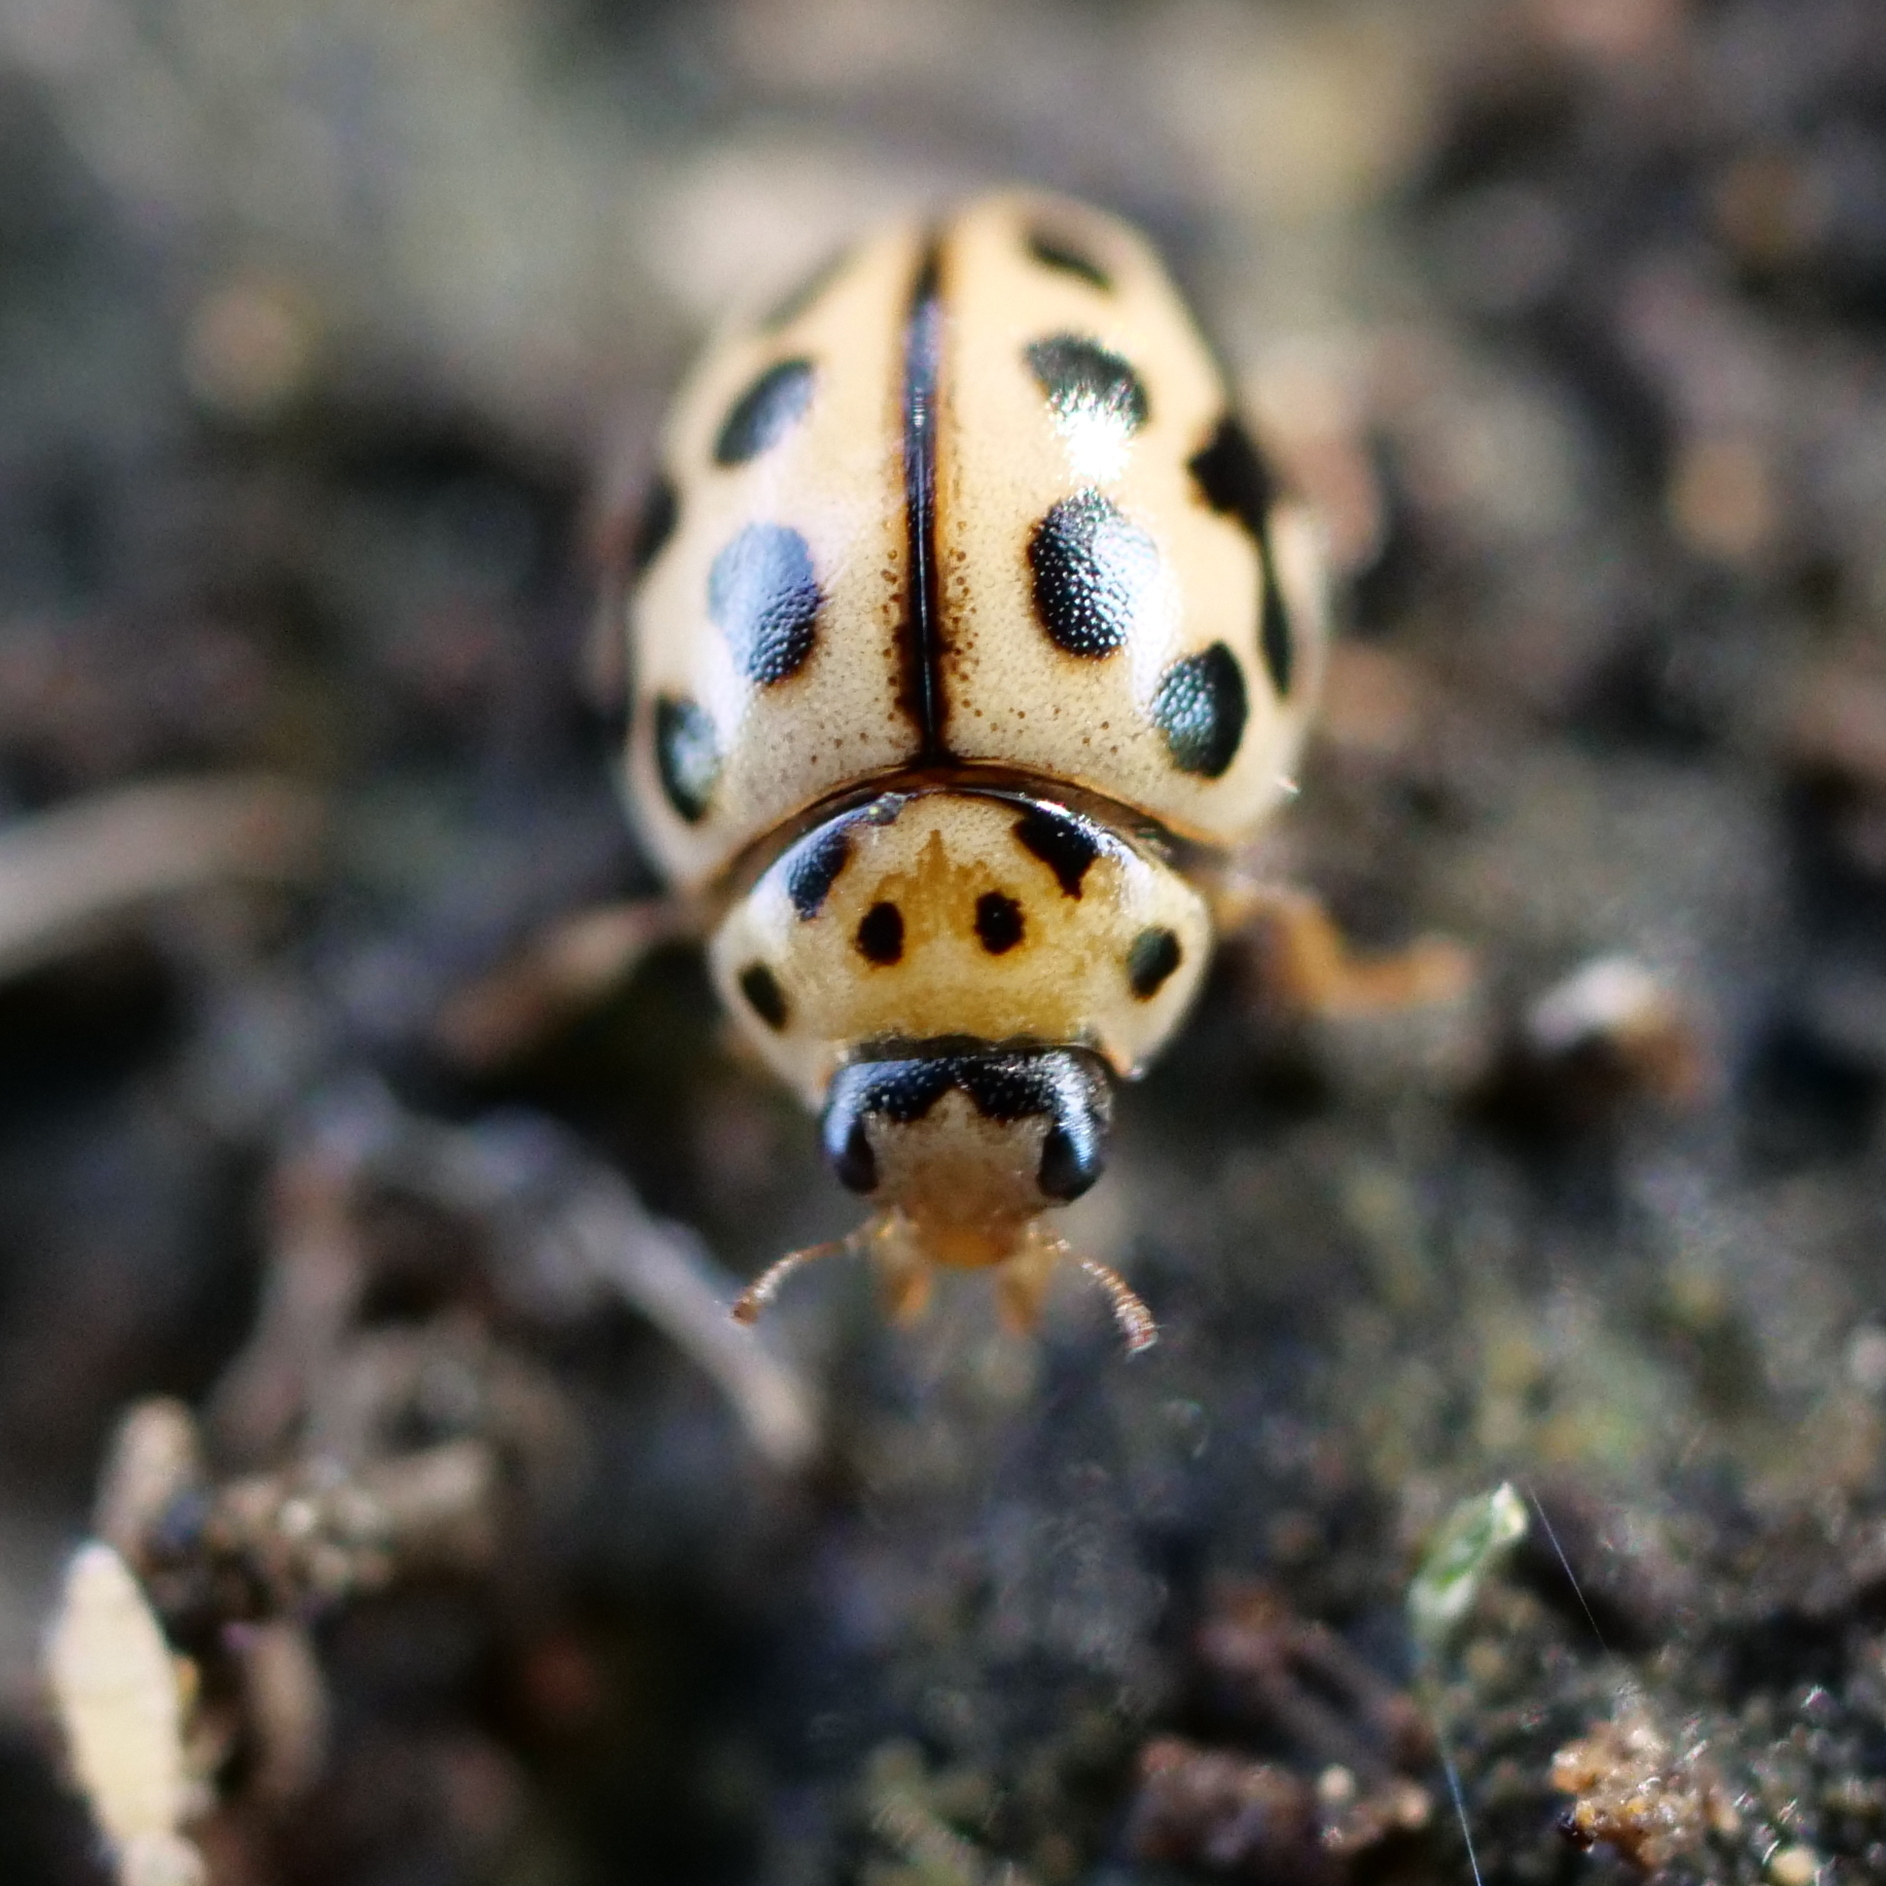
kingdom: Animalia
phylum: Arthropoda
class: Insecta
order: Coleoptera
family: Coccinellidae
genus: Tytthaspis
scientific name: Tytthaspis sedecimpunctata
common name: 16-spot ladybird
